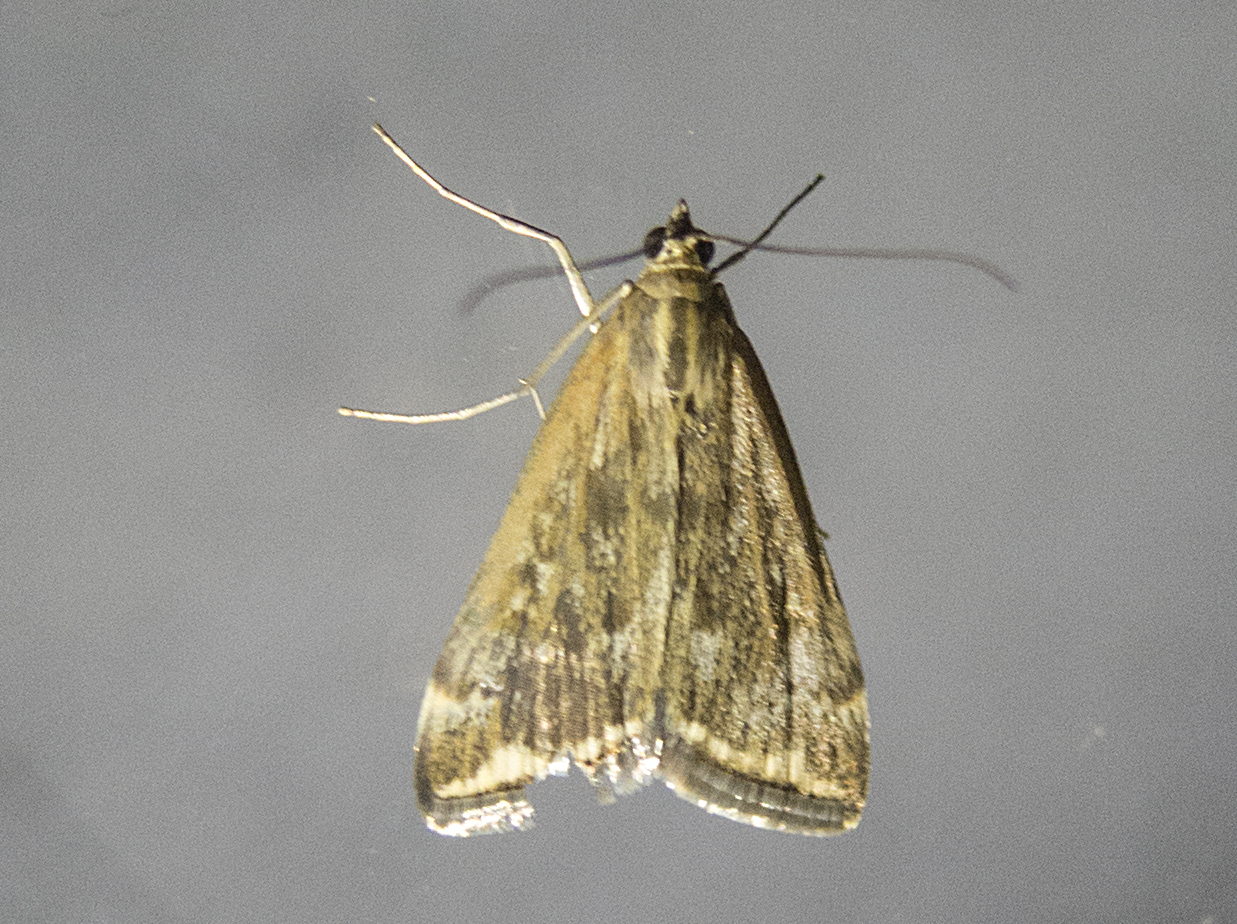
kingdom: Animalia
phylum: Arthropoda
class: Insecta
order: Lepidoptera
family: Crambidae
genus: Loxostege
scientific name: Loxostege sticticalis
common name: Crambid moth
